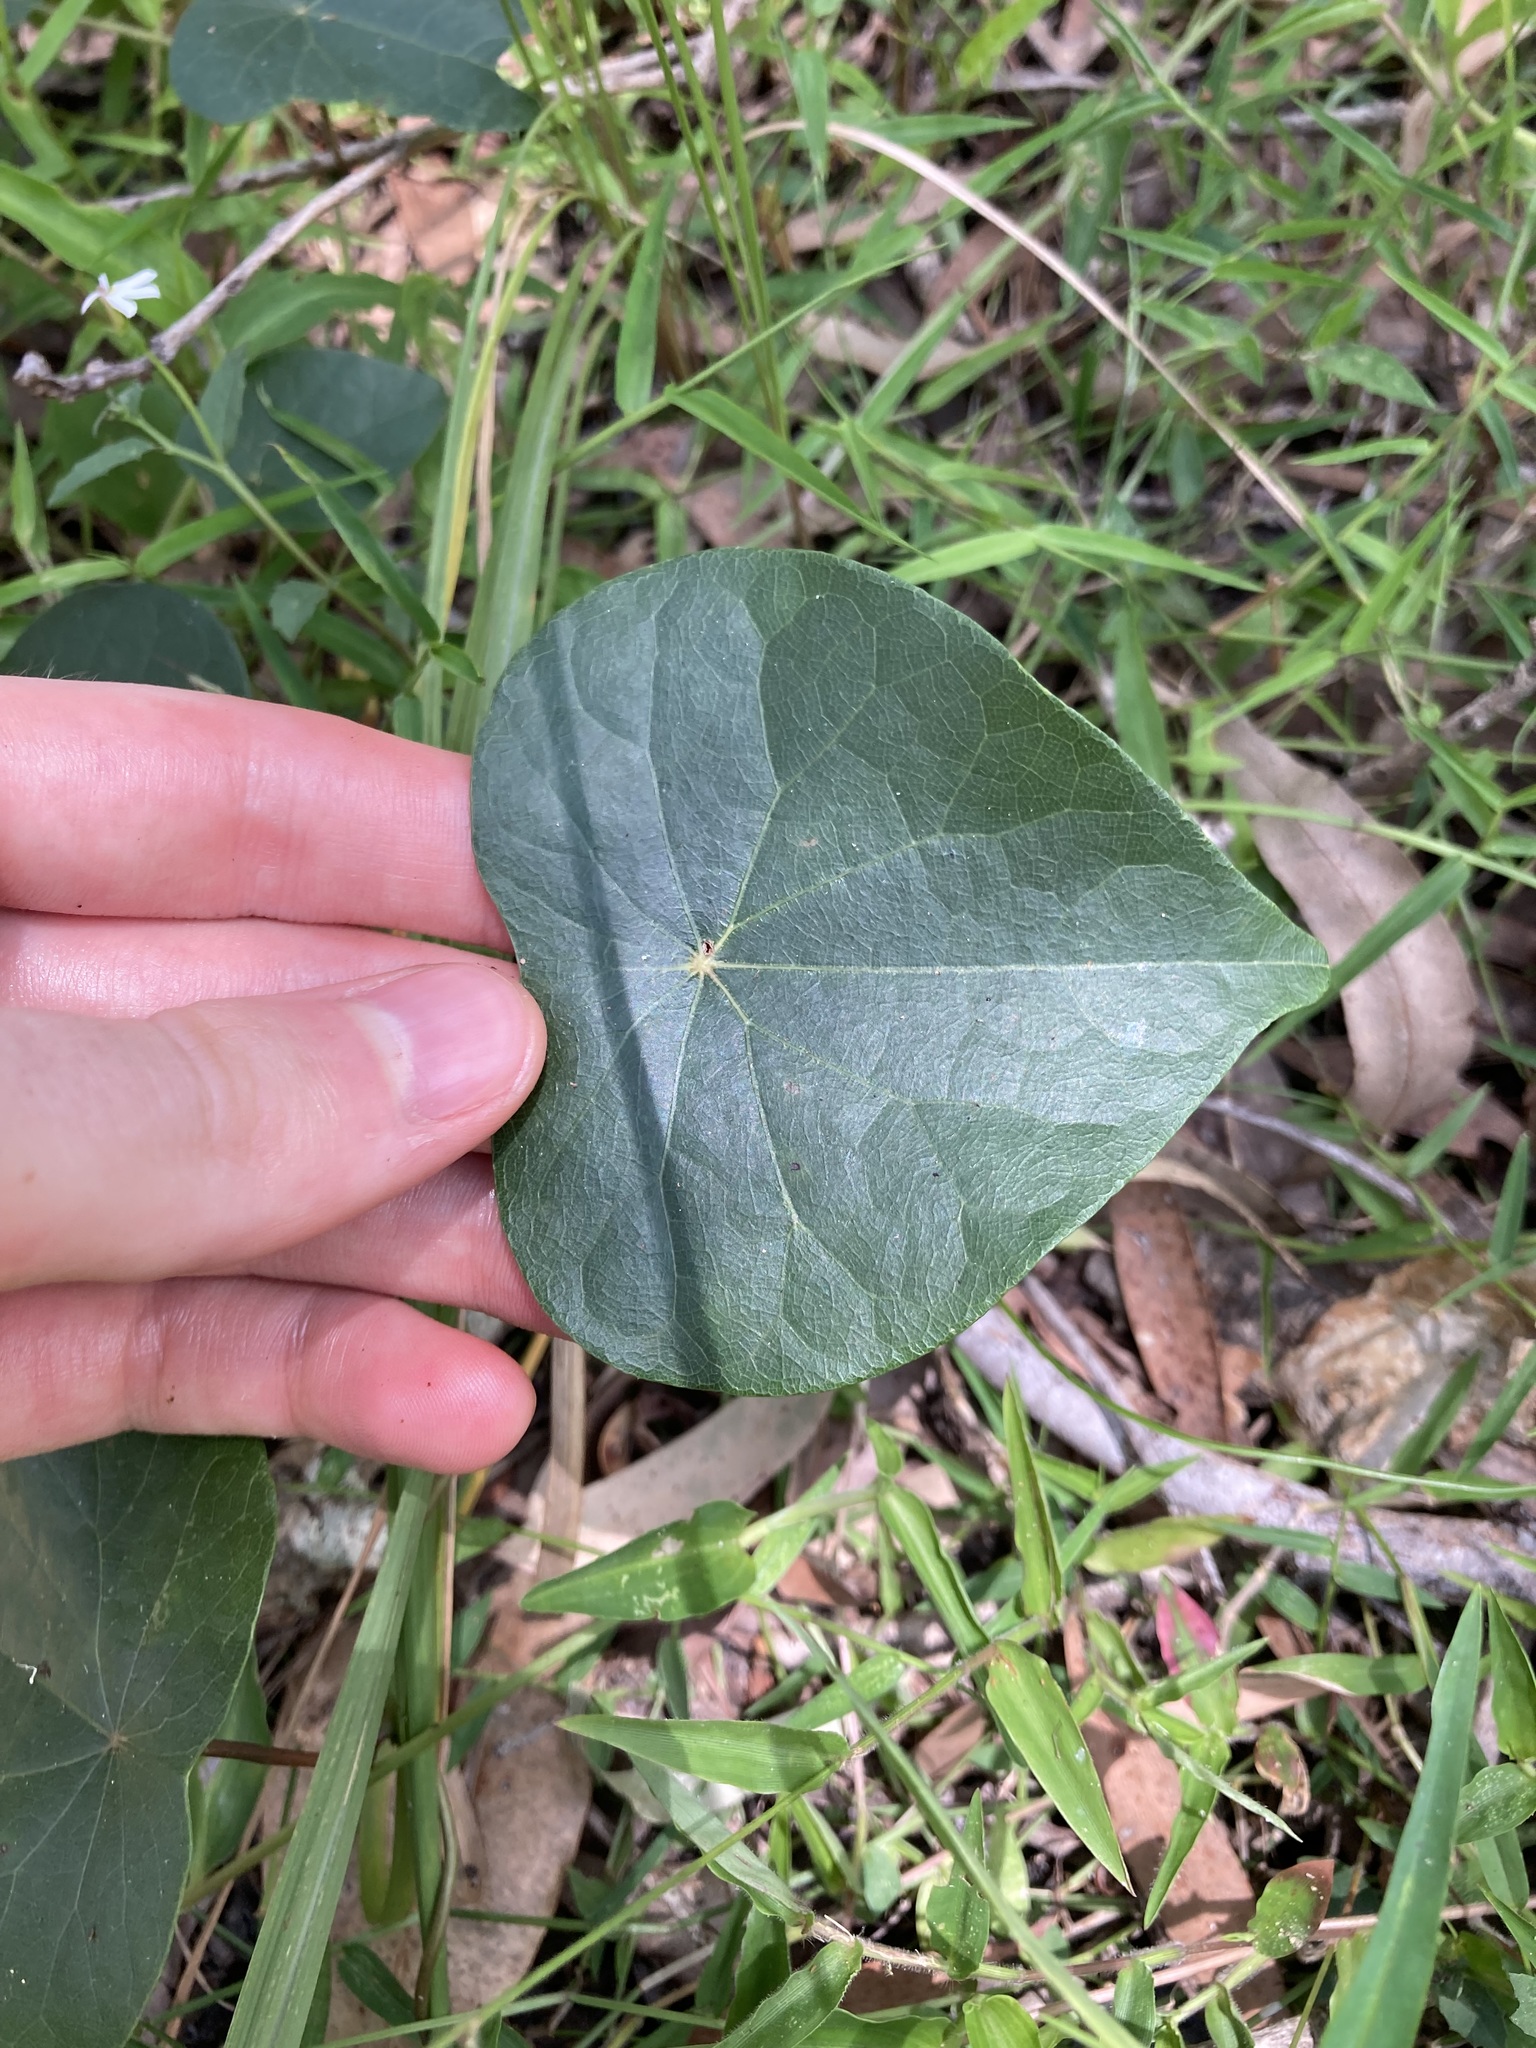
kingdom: Plantae
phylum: Tracheophyta
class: Magnoliopsida
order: Ranunculales
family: Menispermaceae
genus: Stephania
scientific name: Stephania japonica
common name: Snake vine
